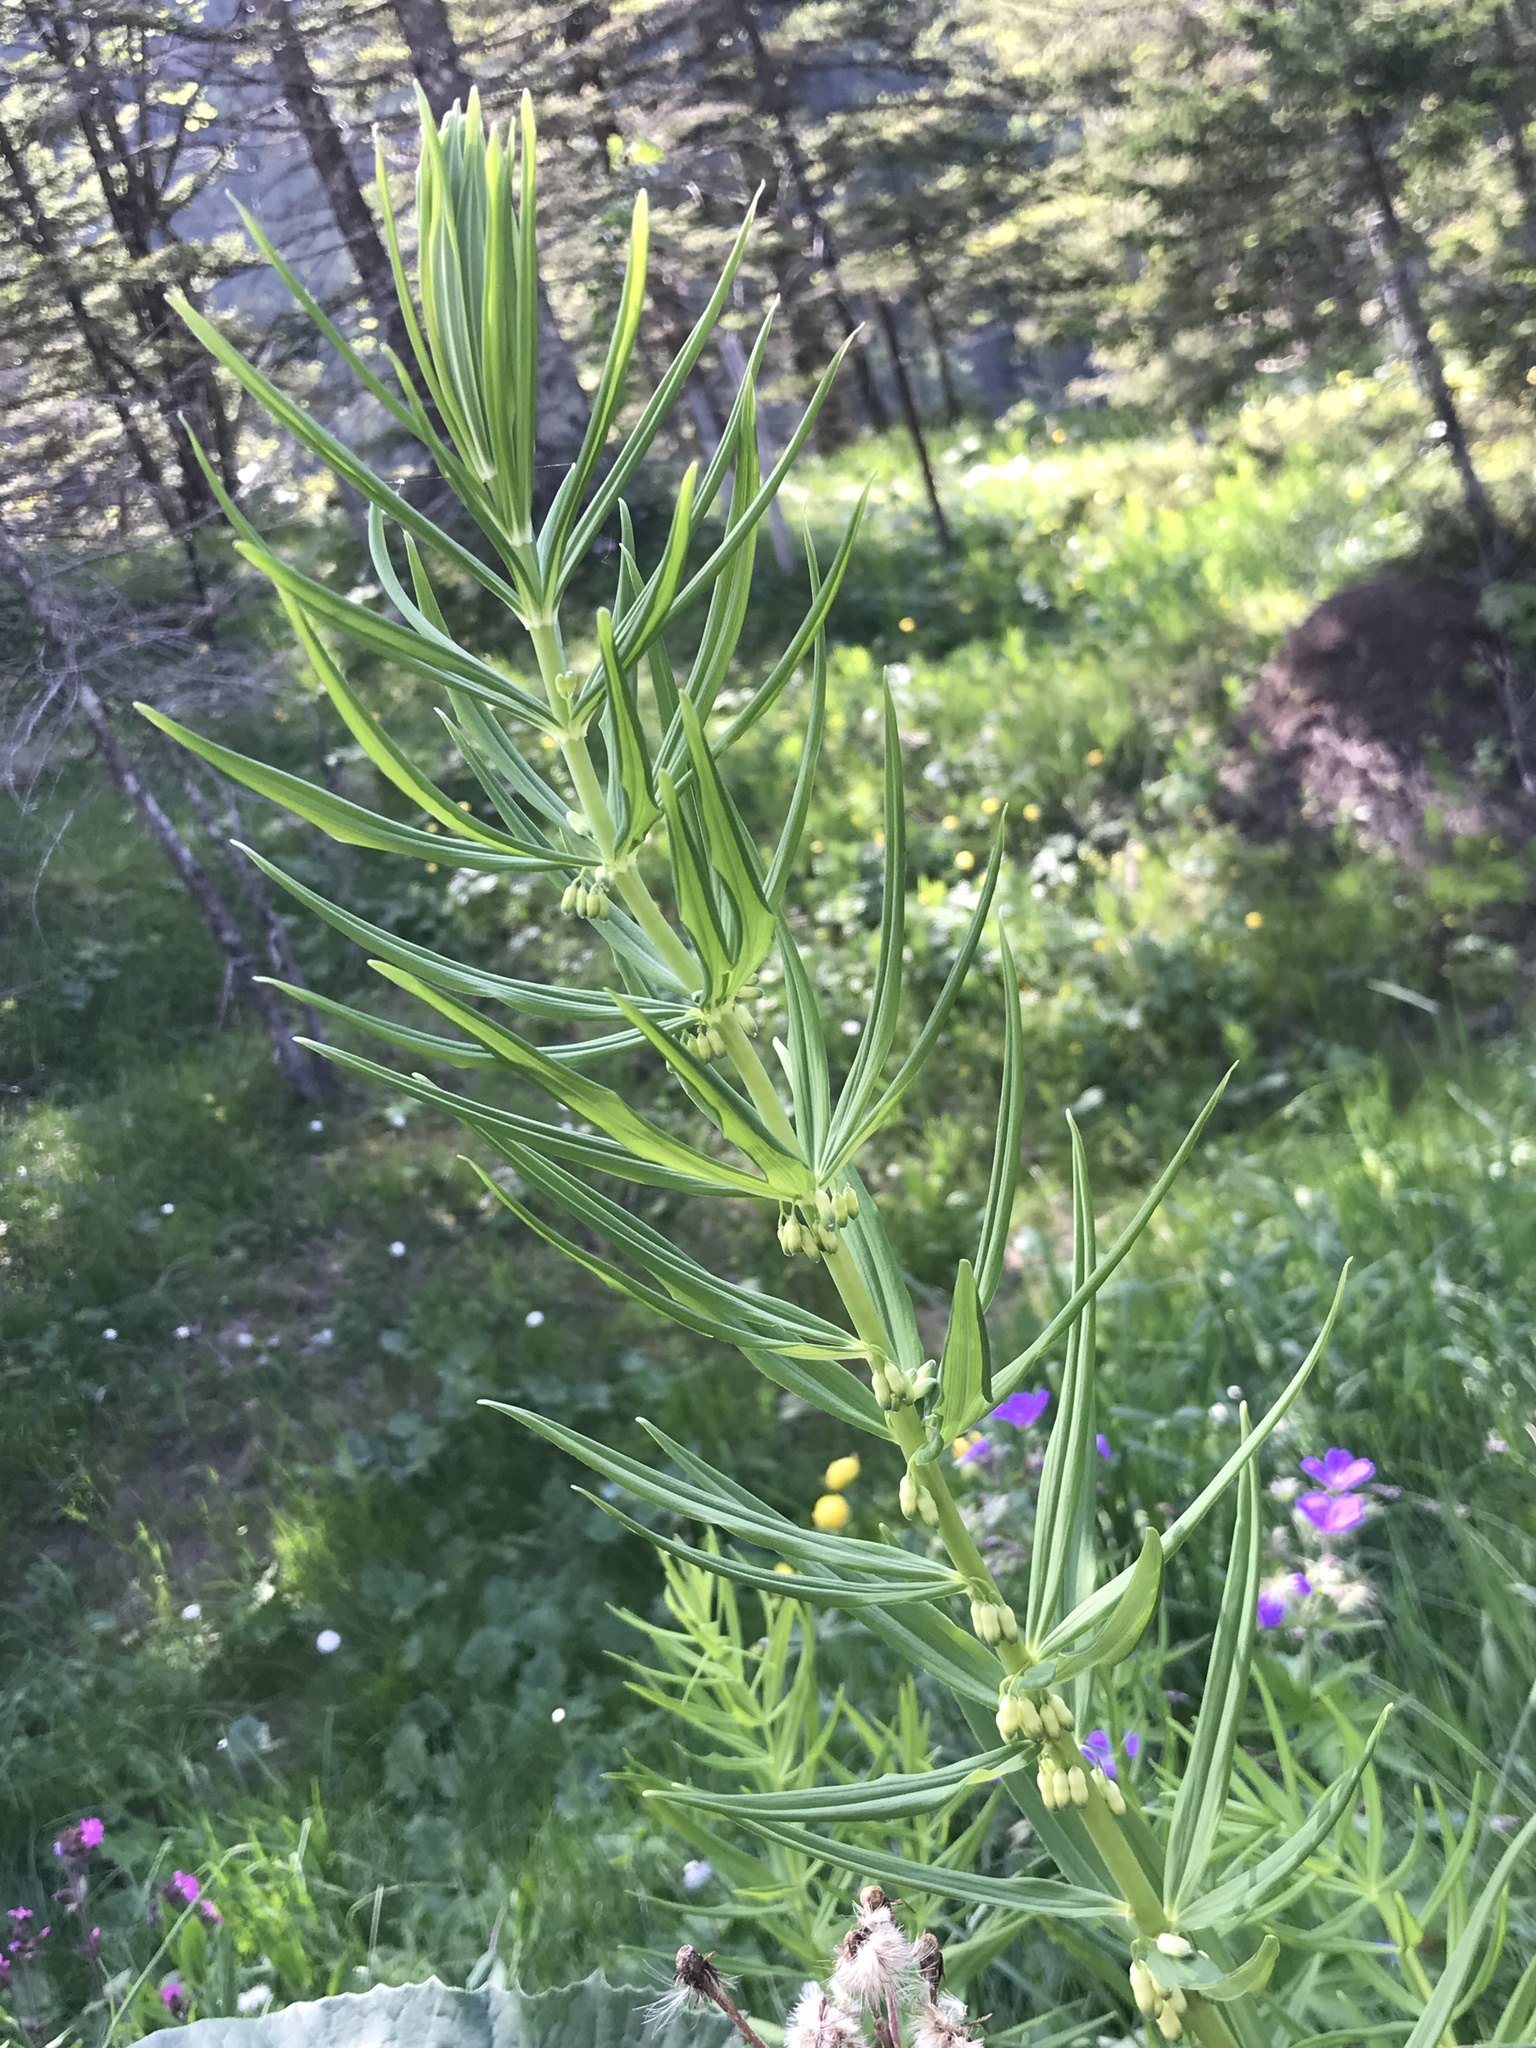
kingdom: Plantae
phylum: Tracheophyta
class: Liliopsida
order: Asparagales
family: Asparagaceae
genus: Polygonatum
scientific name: Polygonatum verticillatum
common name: Whorled solomon's-seal
